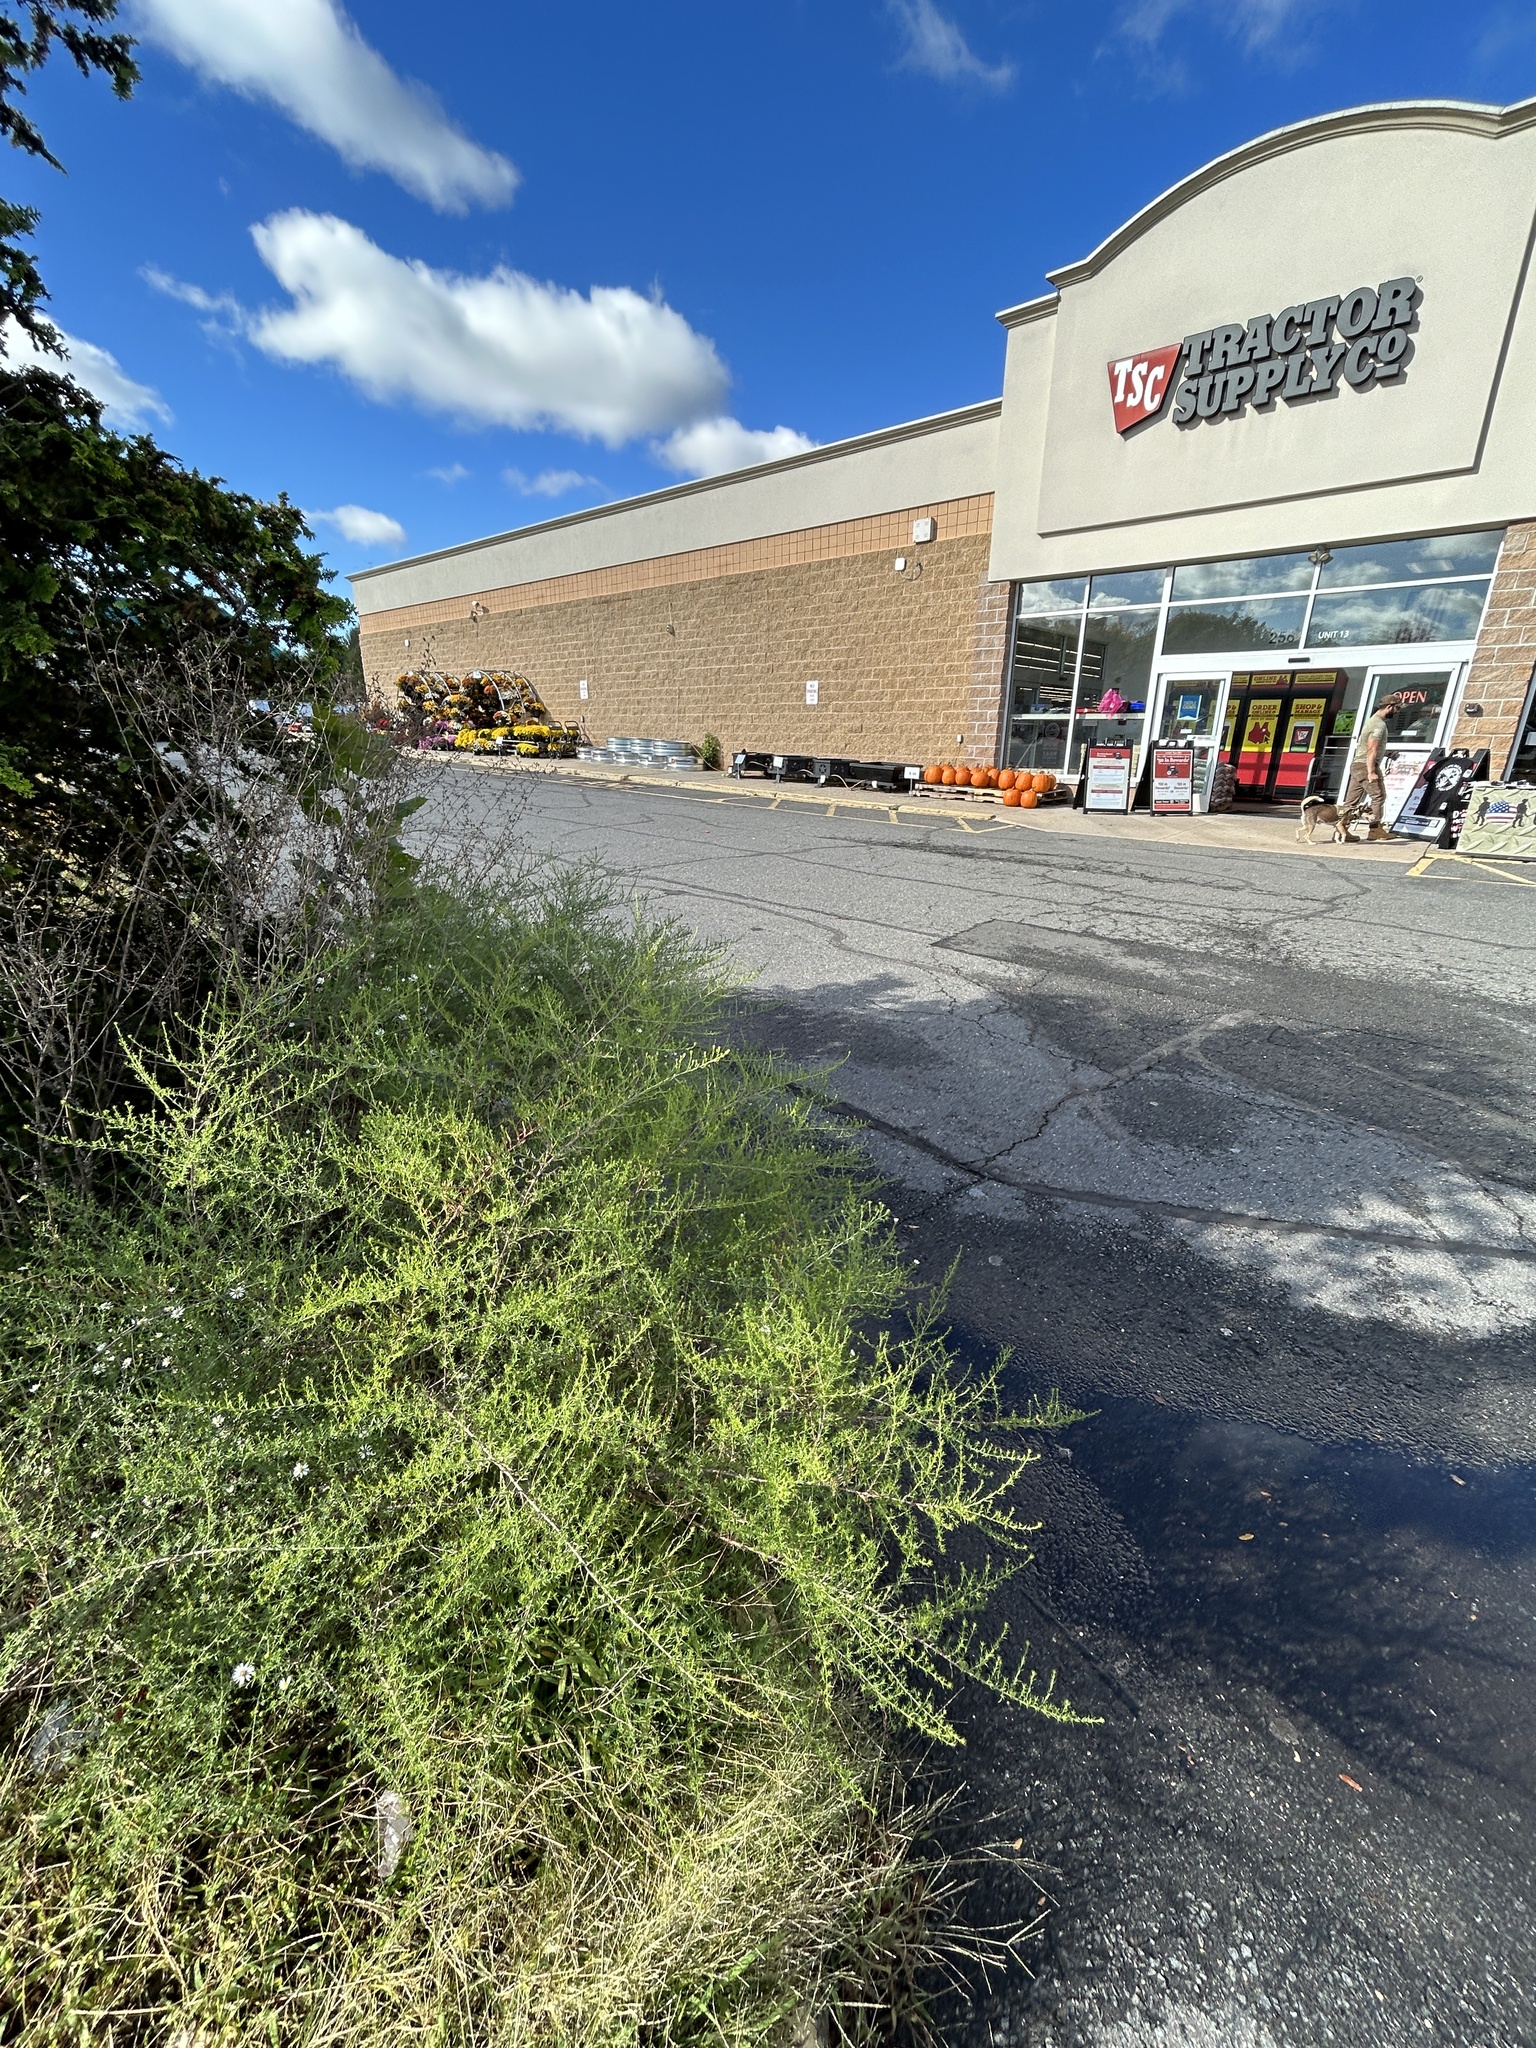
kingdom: Plantae
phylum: Tracheophyta
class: Magnoliopsida
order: Asterales
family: Asteraceae
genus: Symphyotrichum
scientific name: Symphyotrichum pilosum
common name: Awl aster
